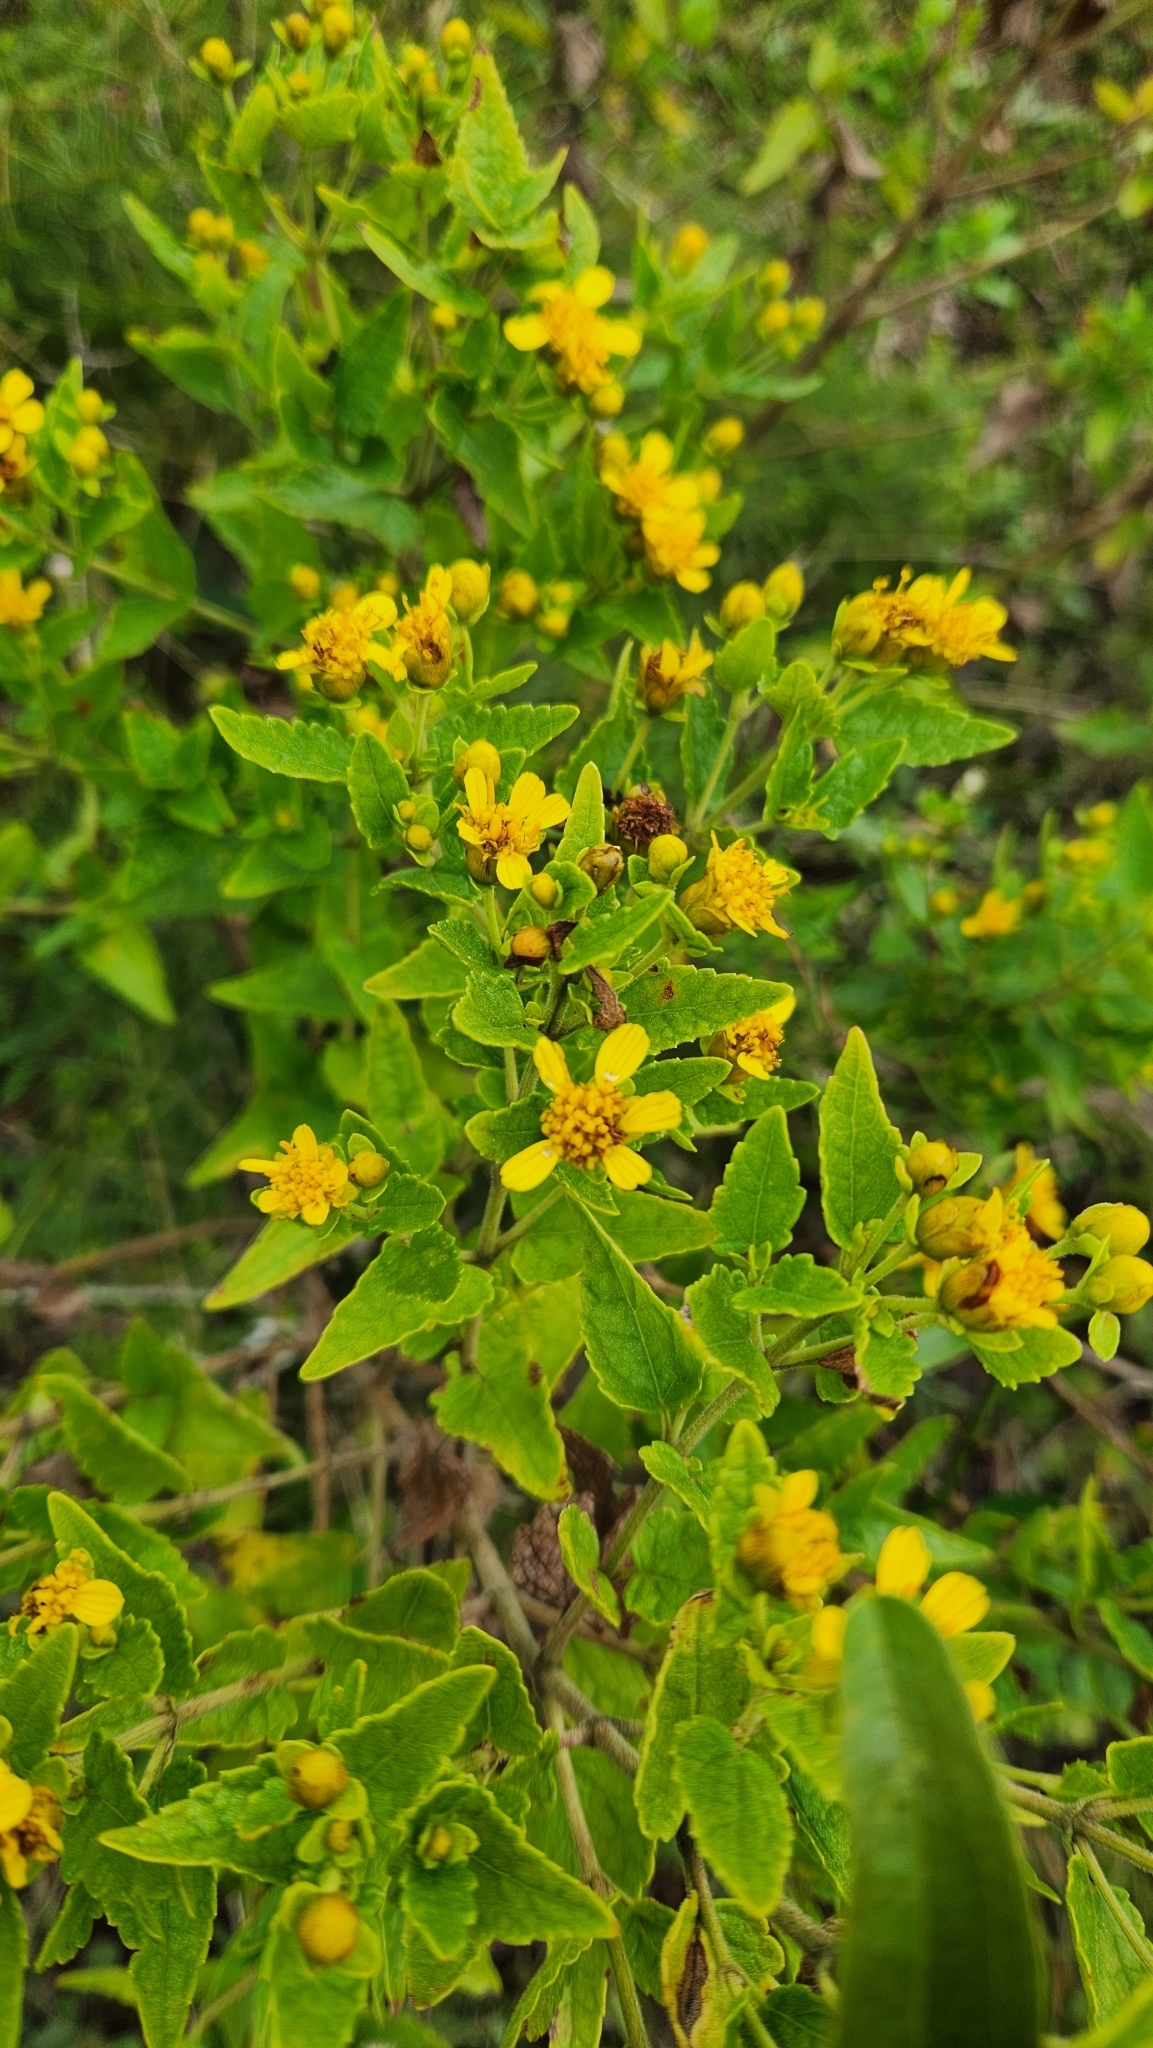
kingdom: Plantae
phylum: Tracheophyta
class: Magnoliopsida
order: Asterales
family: Asteraceae
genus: Calea
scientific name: Calea
